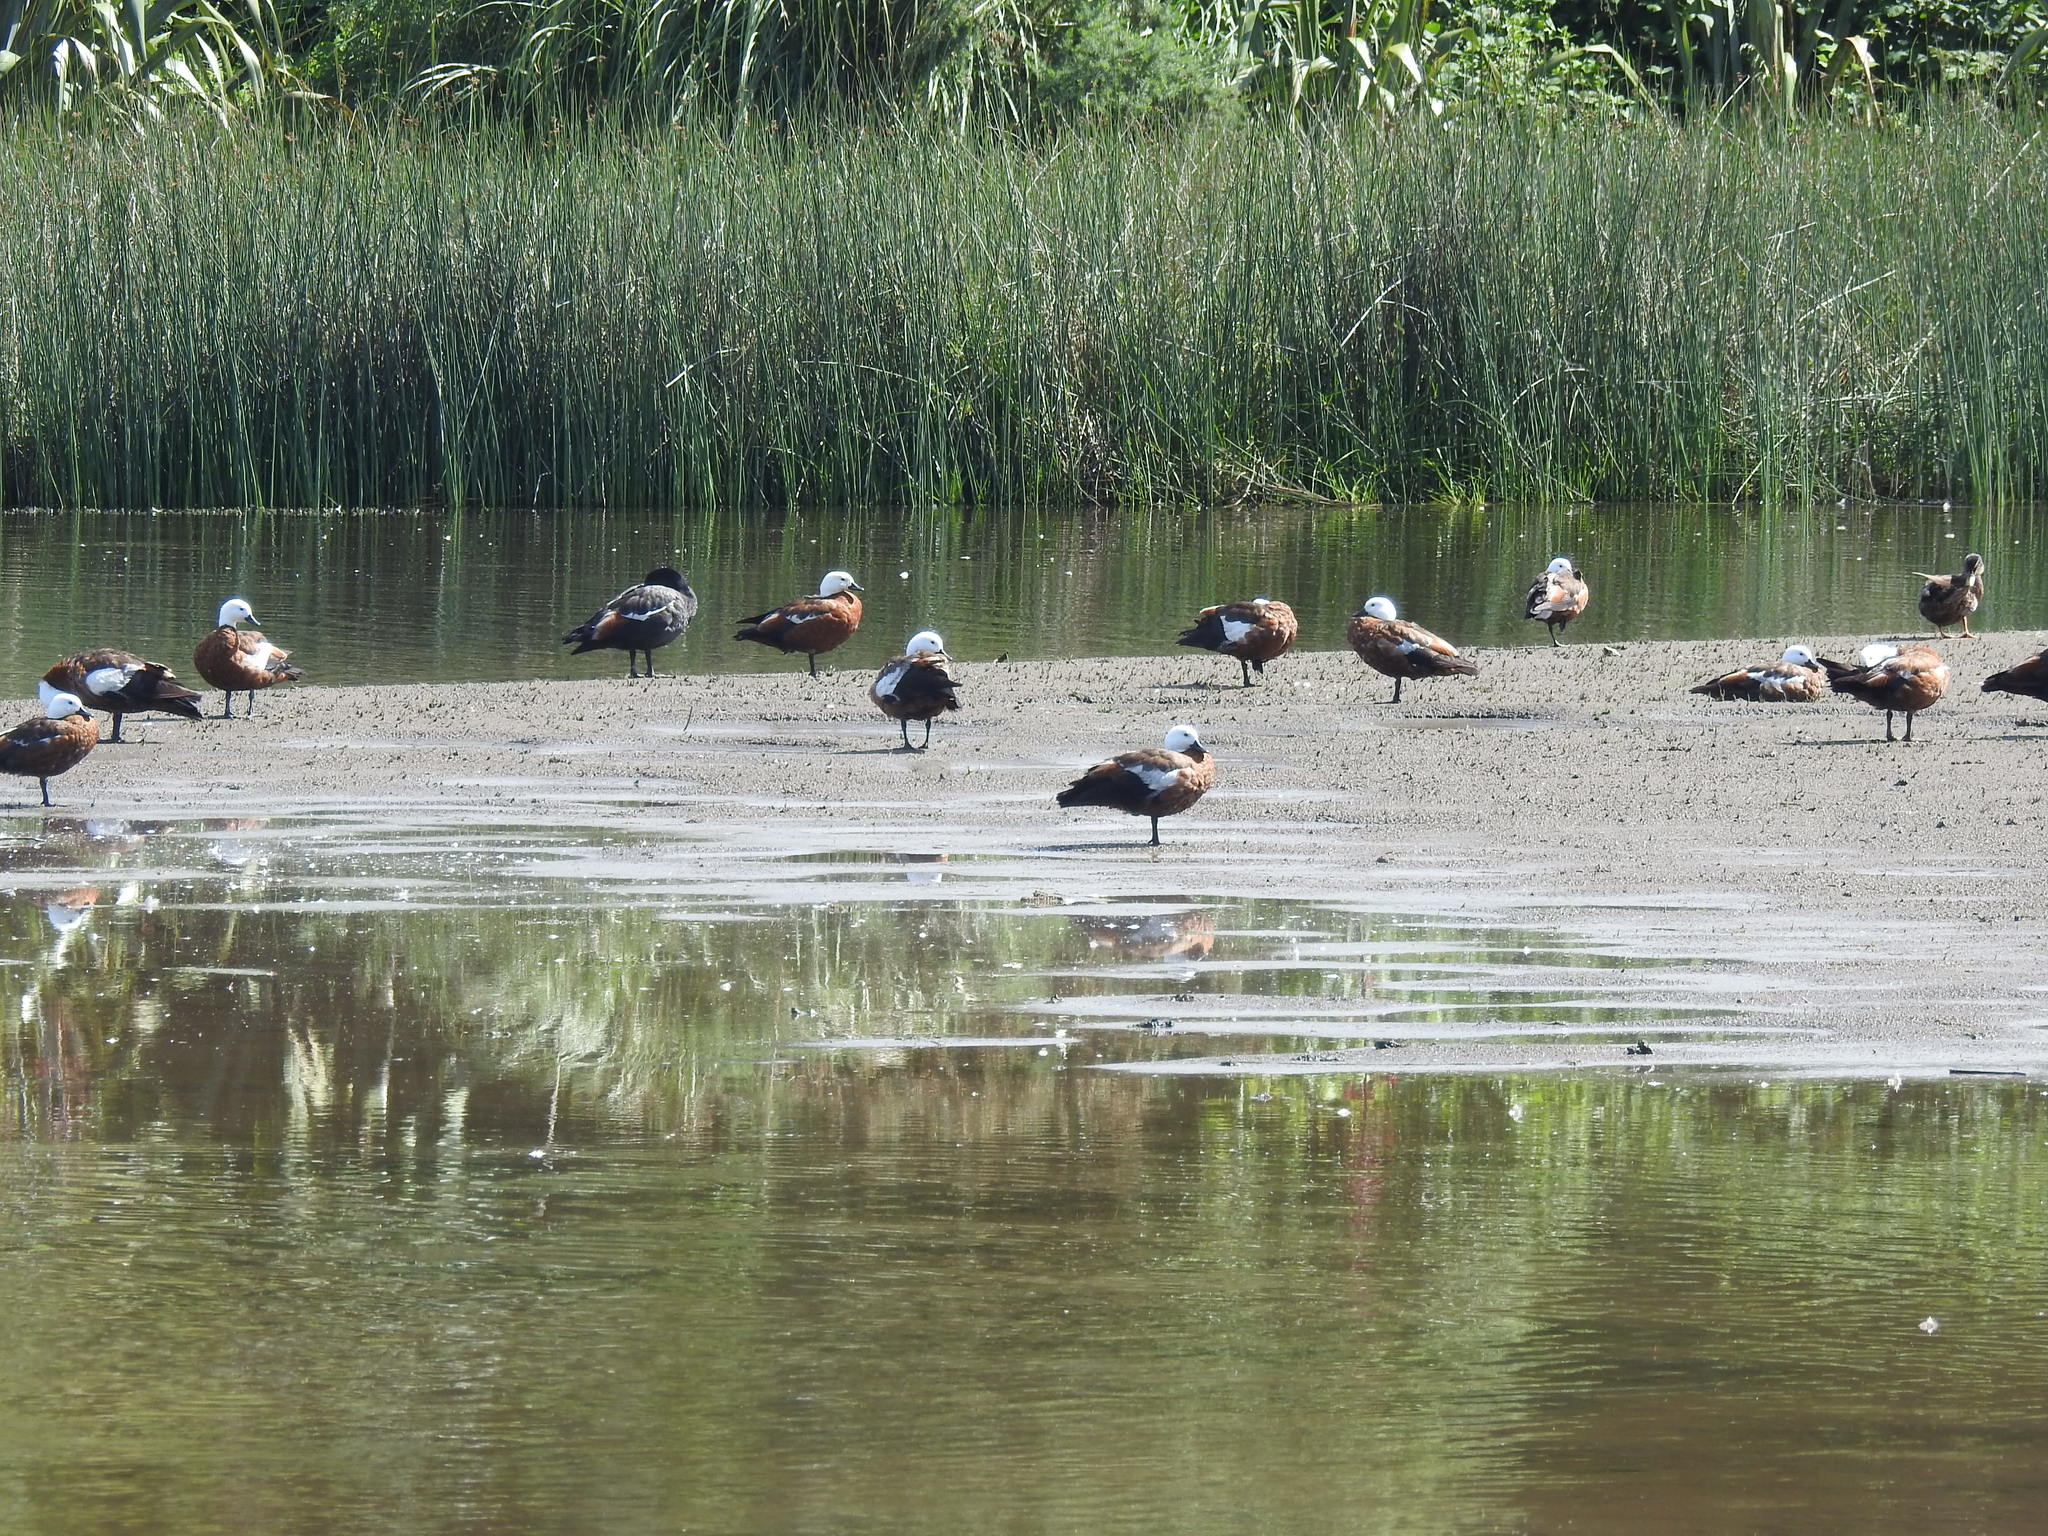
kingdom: Animalia
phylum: Chordata
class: Aves
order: Anseriformes
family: Anatidae
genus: Tadorna
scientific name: Tadorna variegata
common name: Paradise shelduck
